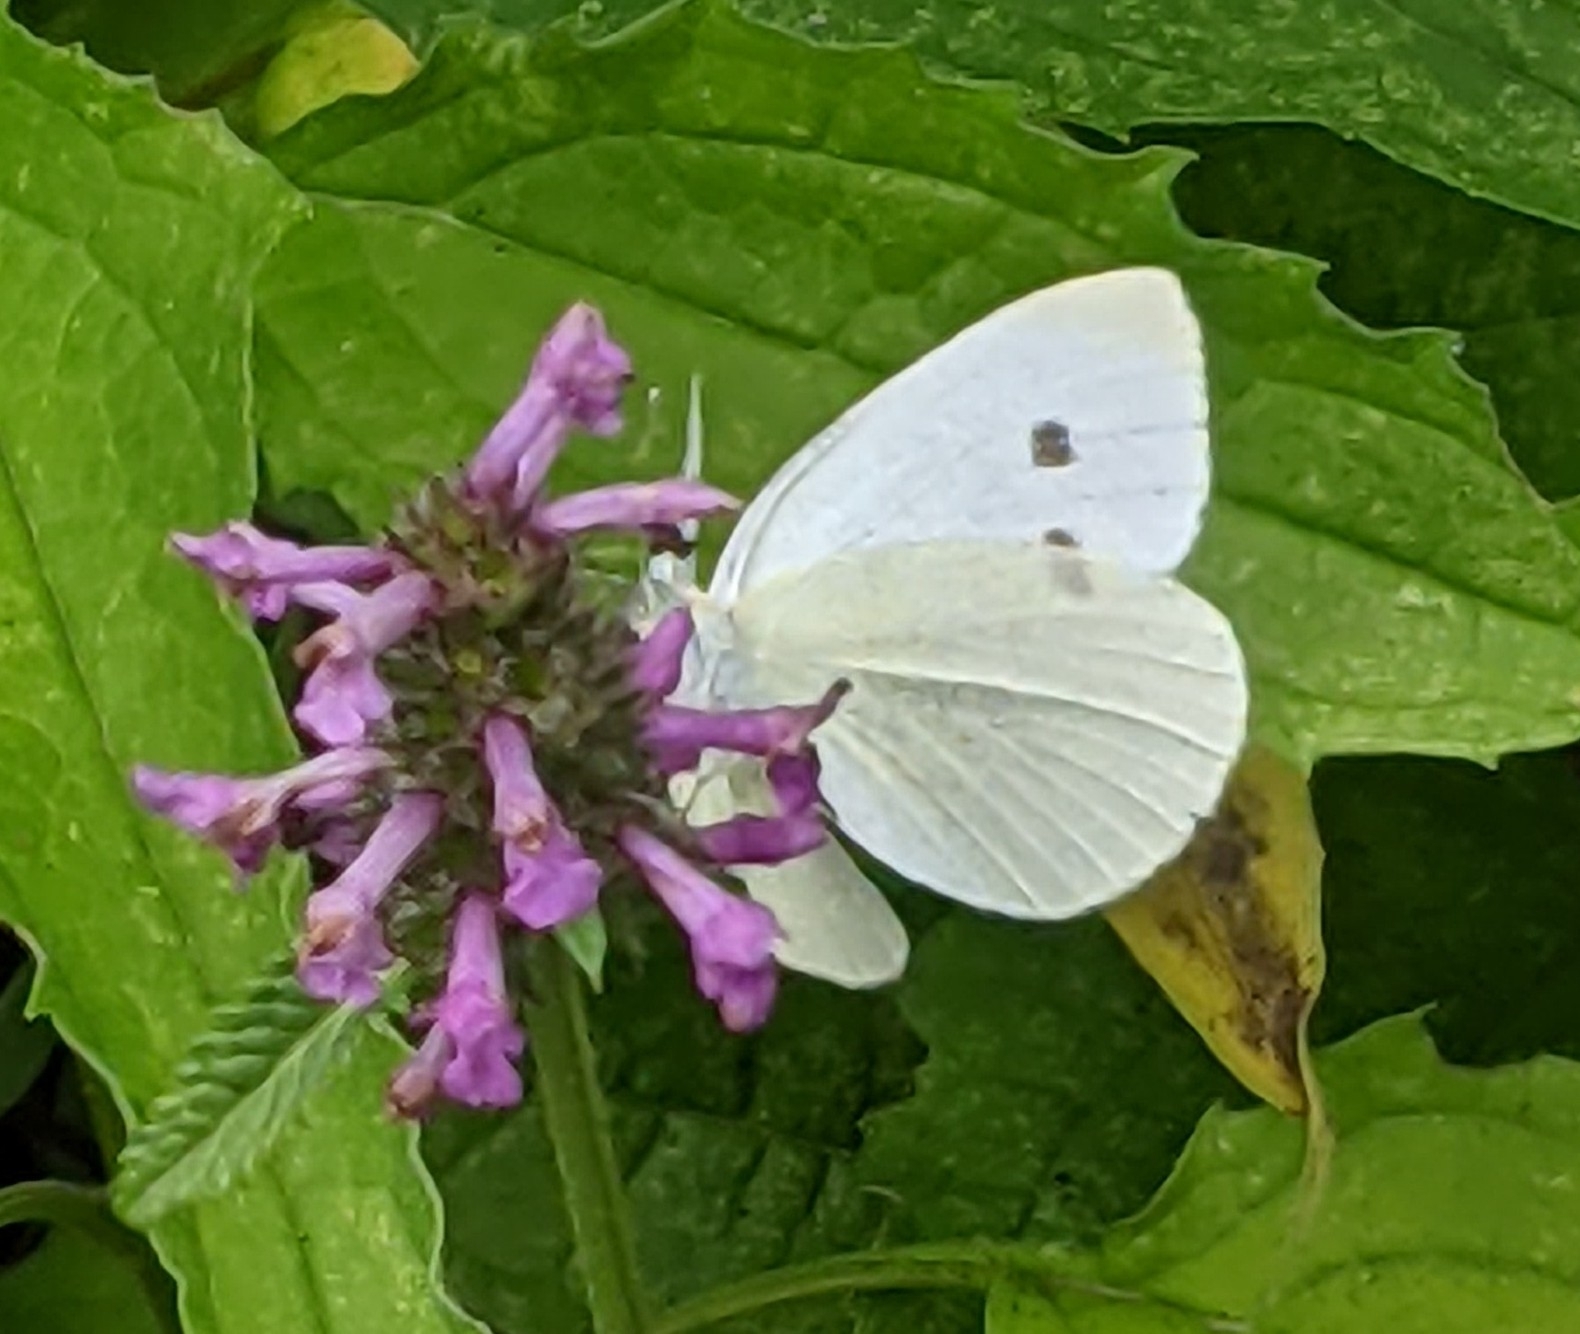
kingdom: Animalia
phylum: Arthropoda
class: Insecta
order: Lepidoptera
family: Pieridae
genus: Pieris
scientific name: Pieris rapae
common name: Small white
